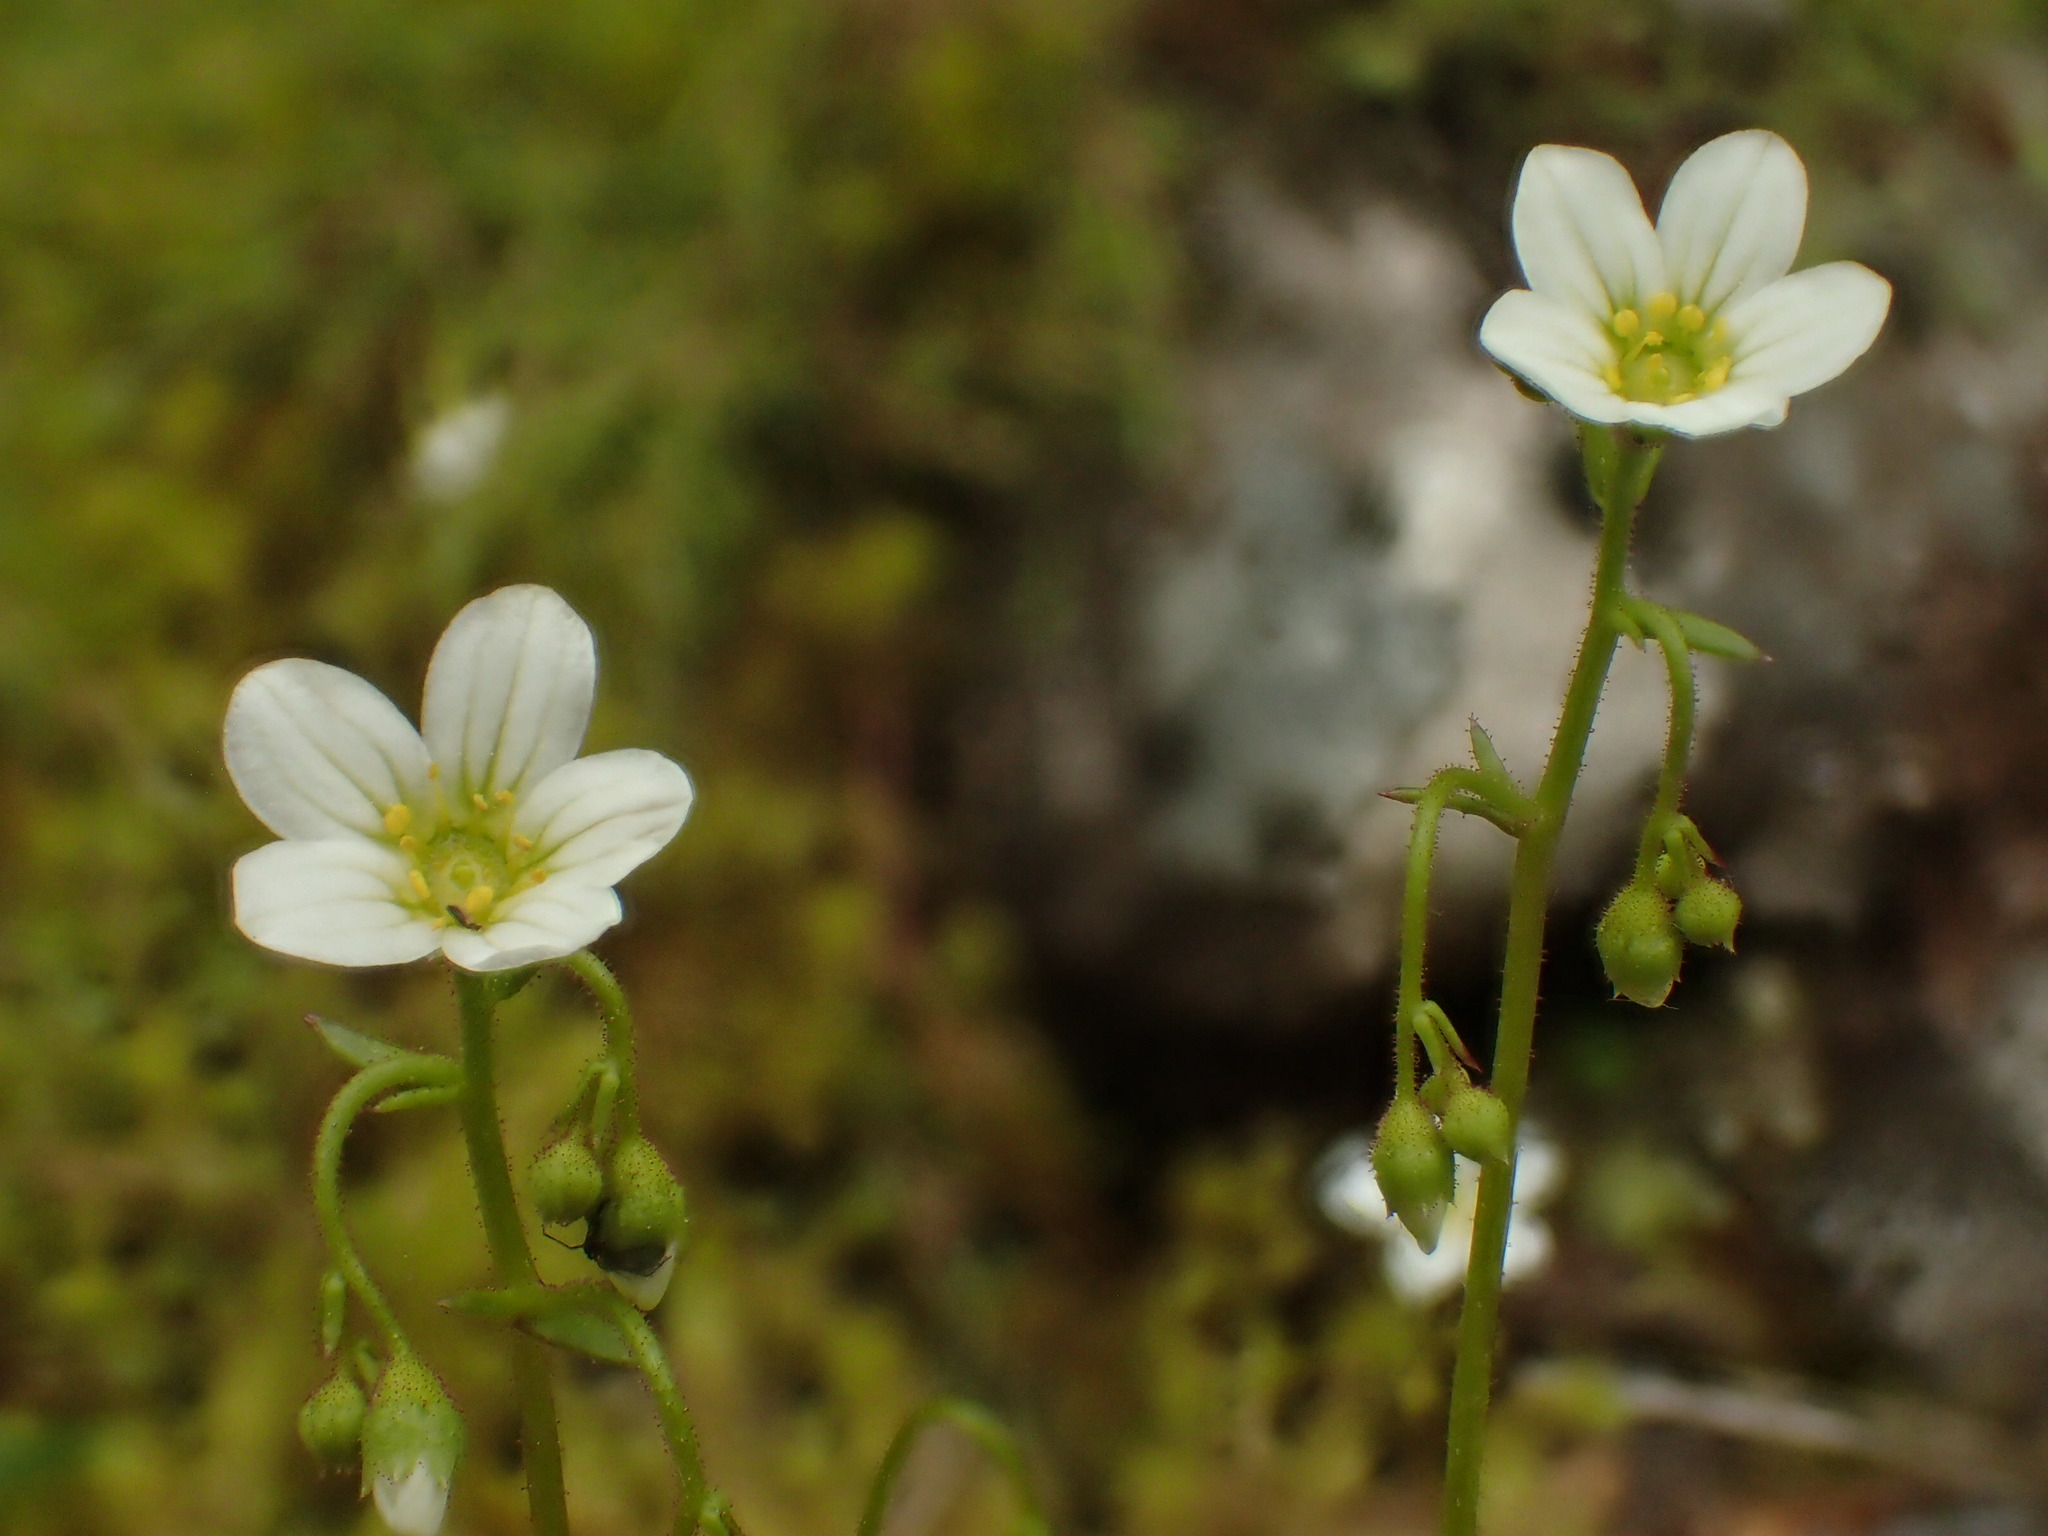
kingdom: Plantae
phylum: Tracheophyta
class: Magnoliopsida
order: Saxifragales
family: Saxifragaceae
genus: Saxifraga
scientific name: Saxifraga fragosoi
